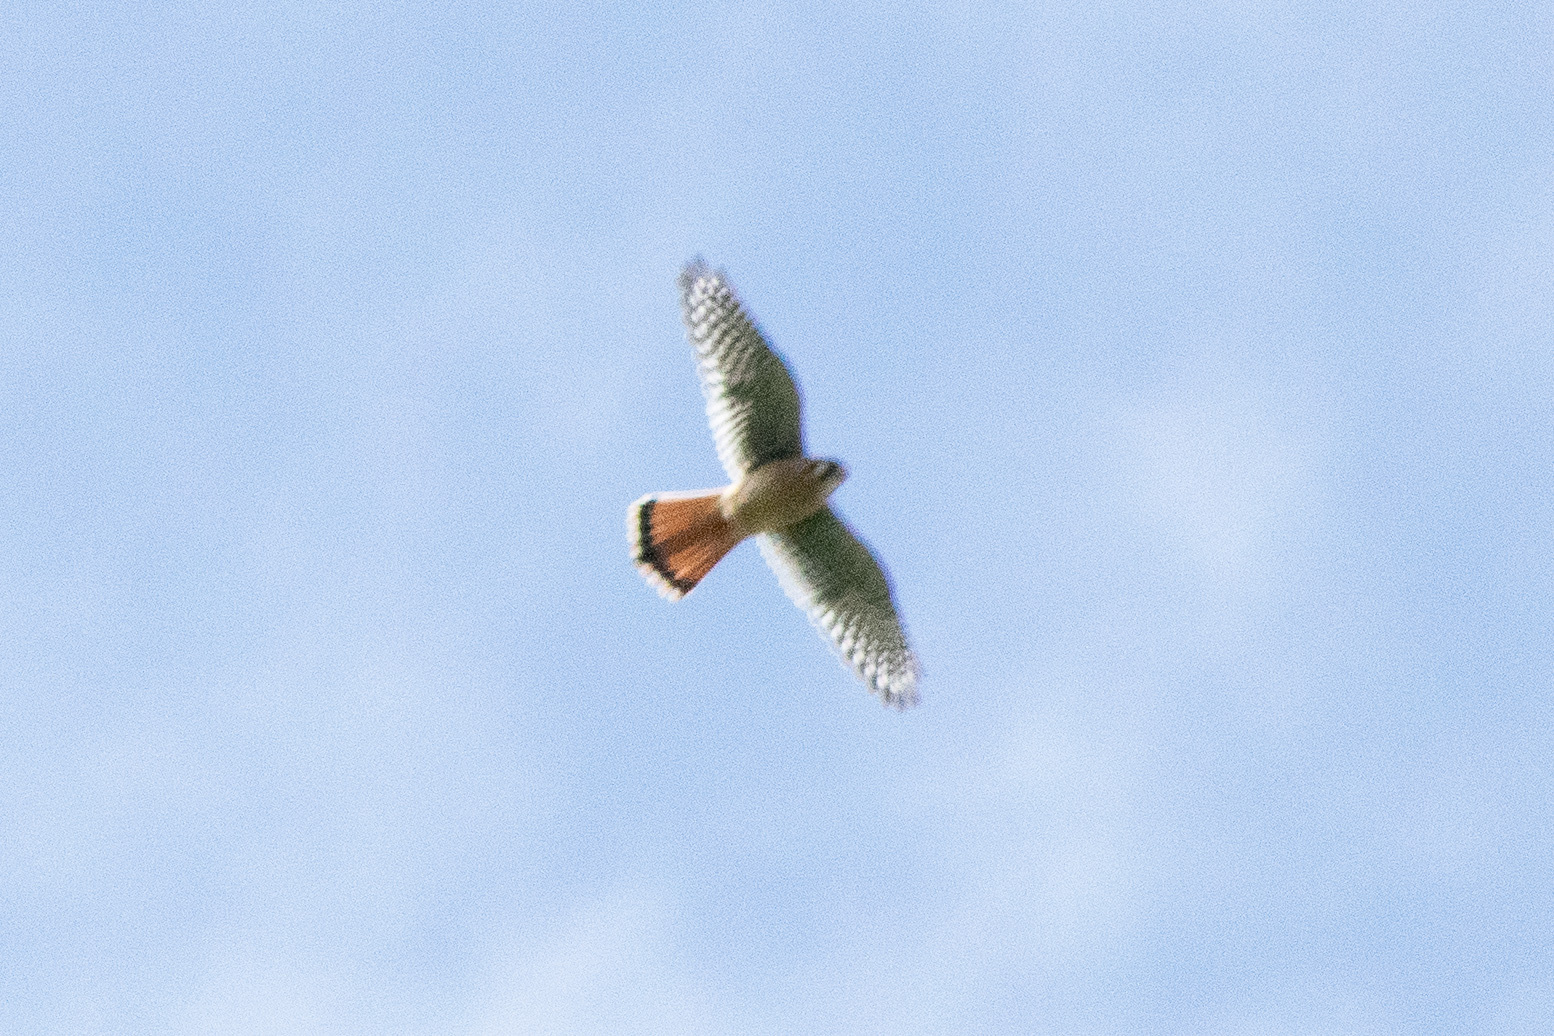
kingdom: Animalia
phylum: Chordata
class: Aves
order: Falconiformes
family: Falconidae
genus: Falco
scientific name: Falco sparverius
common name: American kestrel
